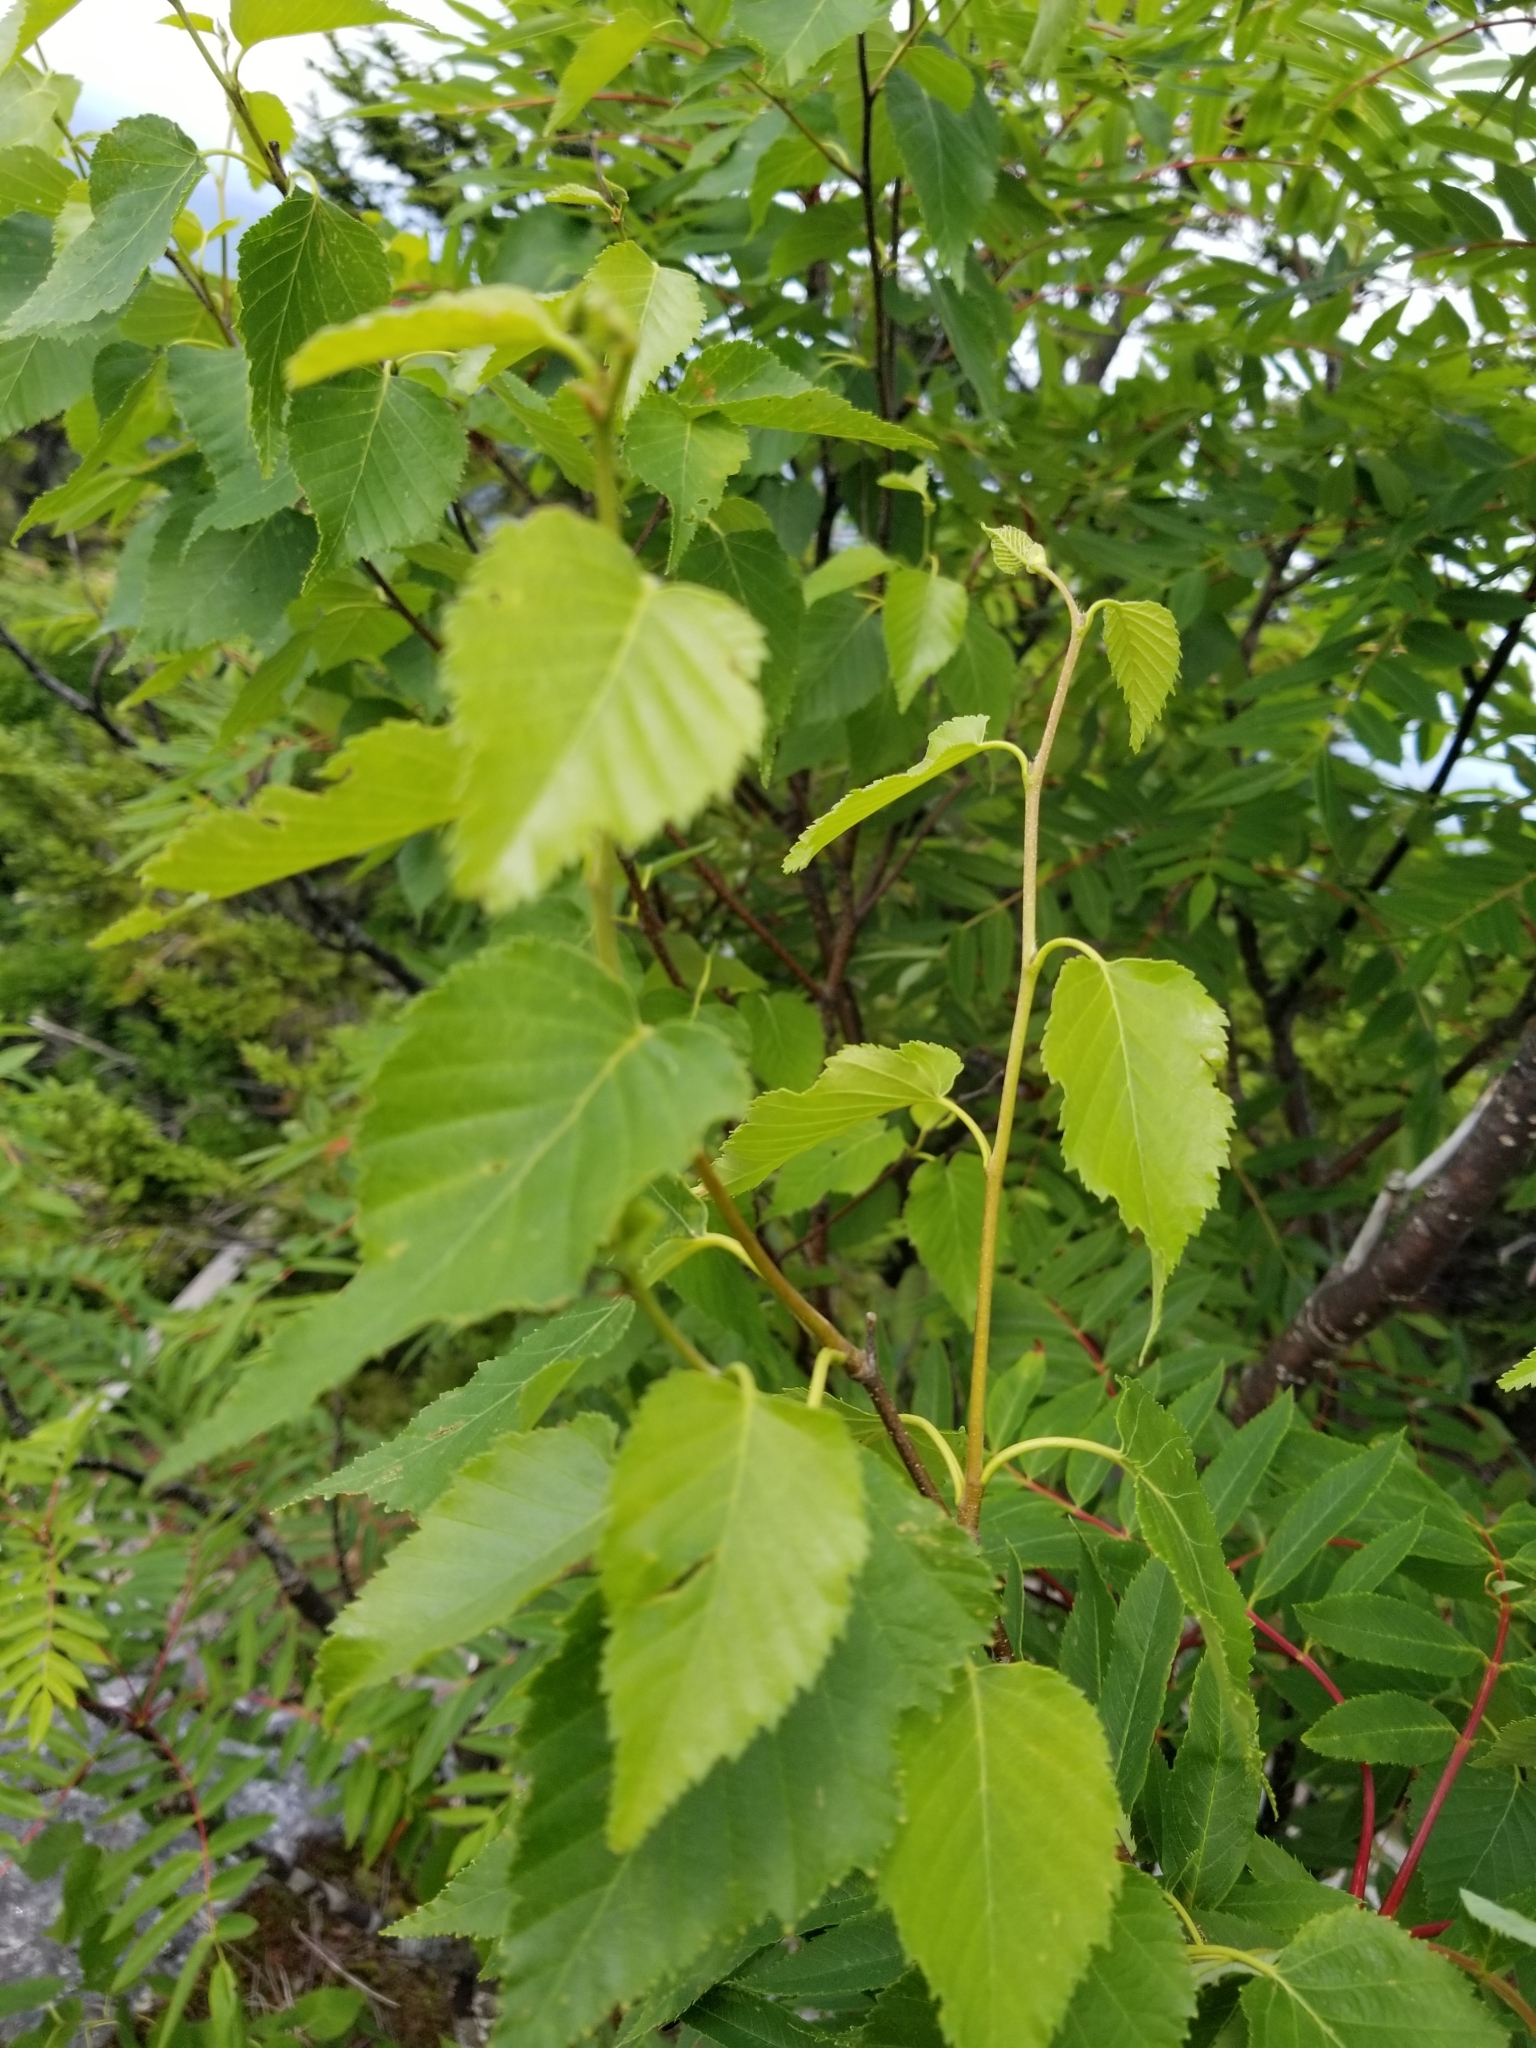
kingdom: Plantae
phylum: Tracheophyta
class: Magnoliopsida
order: Fagales
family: Betulaceae
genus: Betula
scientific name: Betula cordifolia
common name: Mountain white birch
